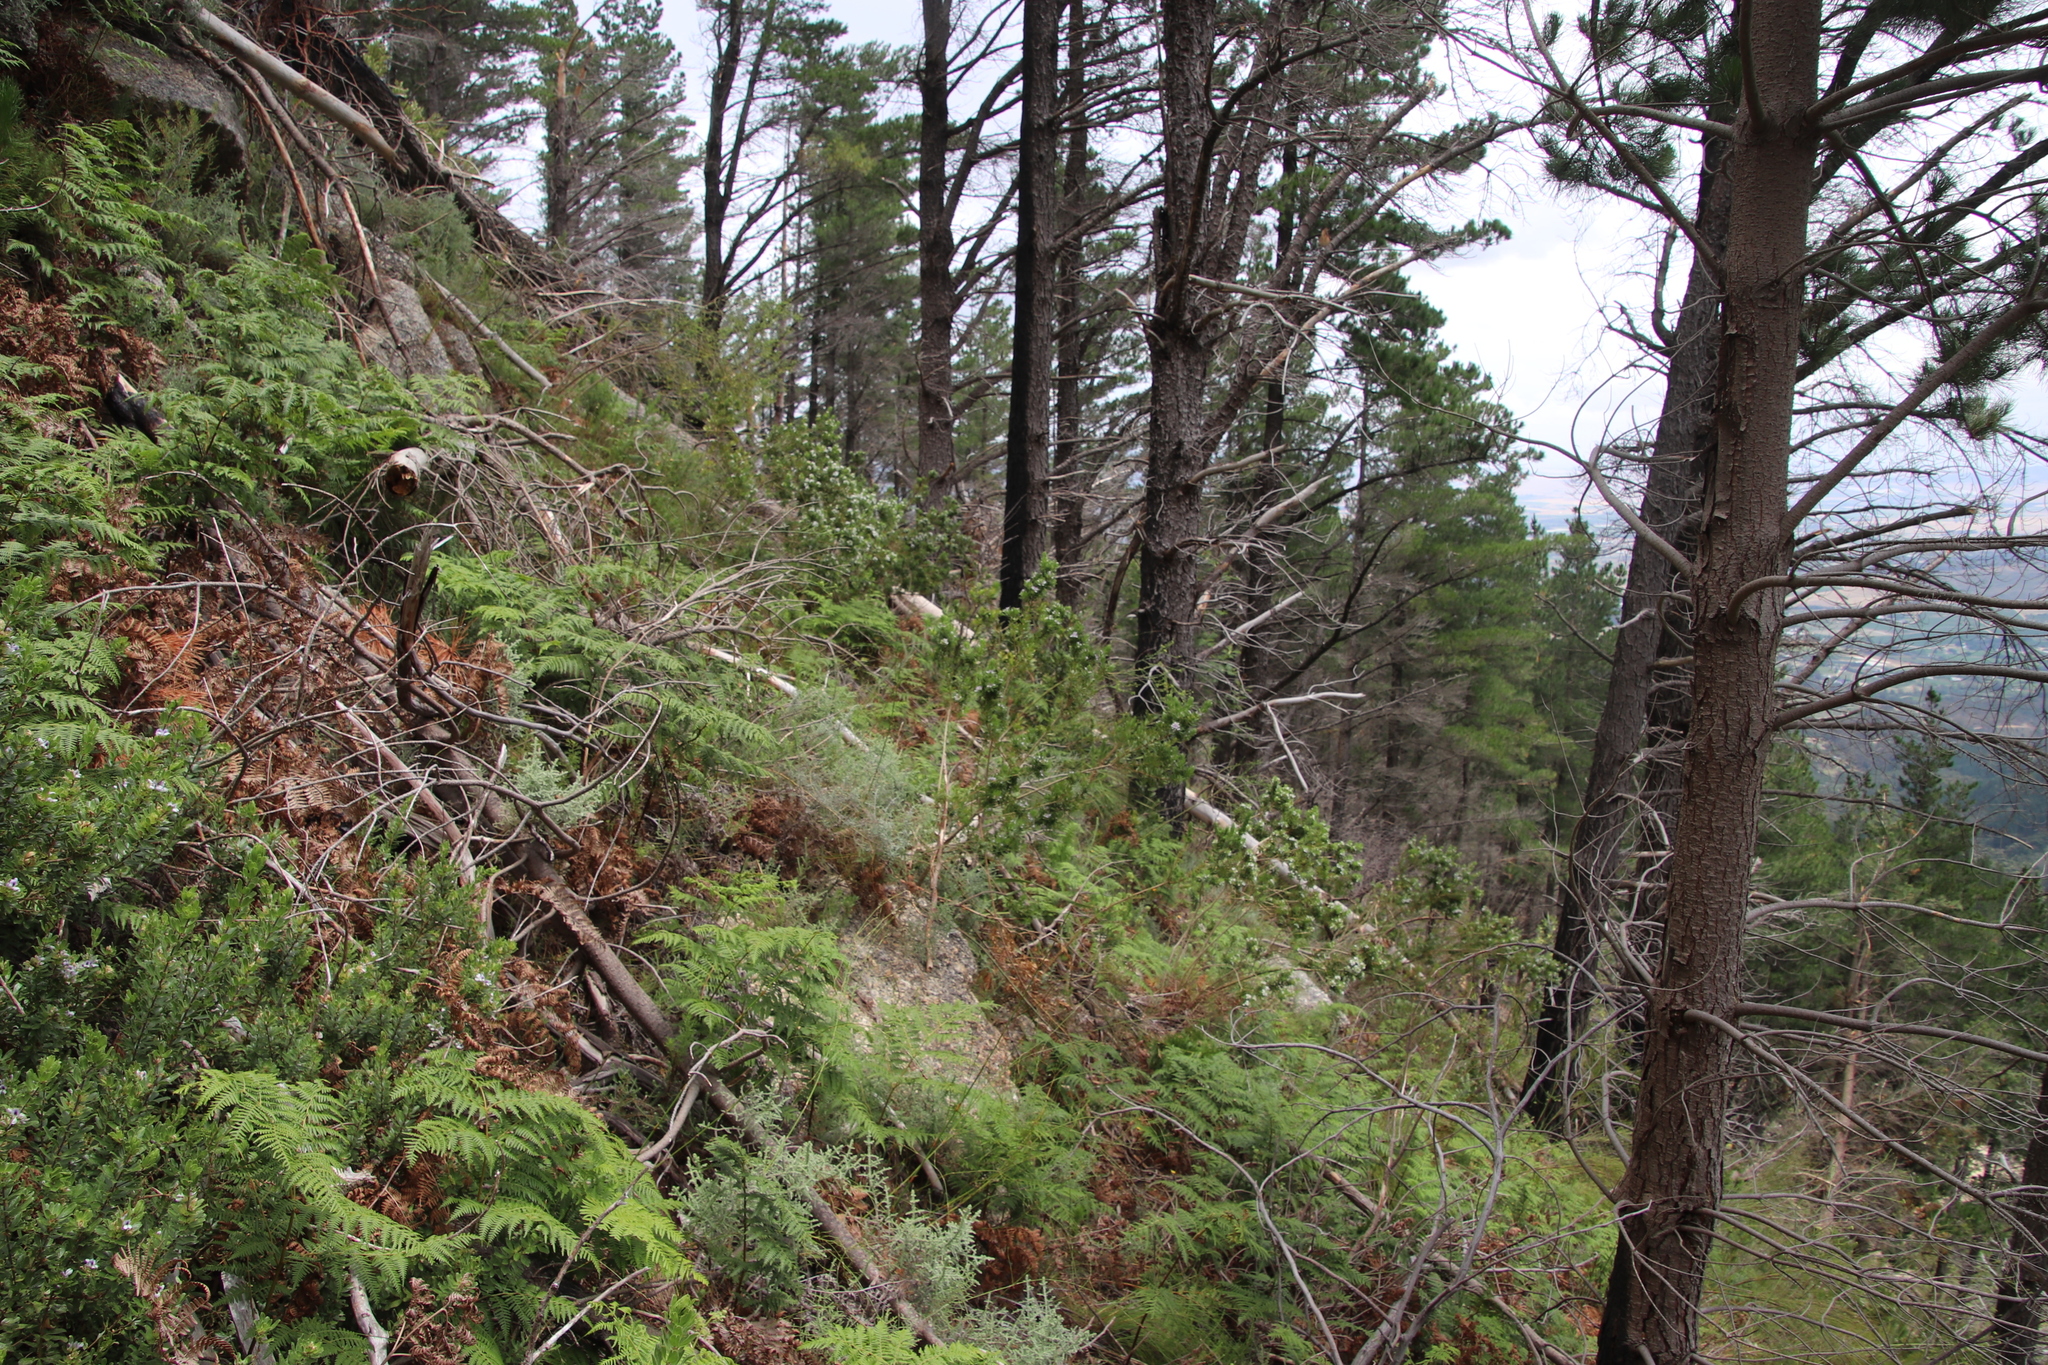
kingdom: Plantae
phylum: Tracheophyta
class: Magnoliopsida
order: Fabales
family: Fabaceae
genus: Psoralea
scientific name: Psoralea obliqua
